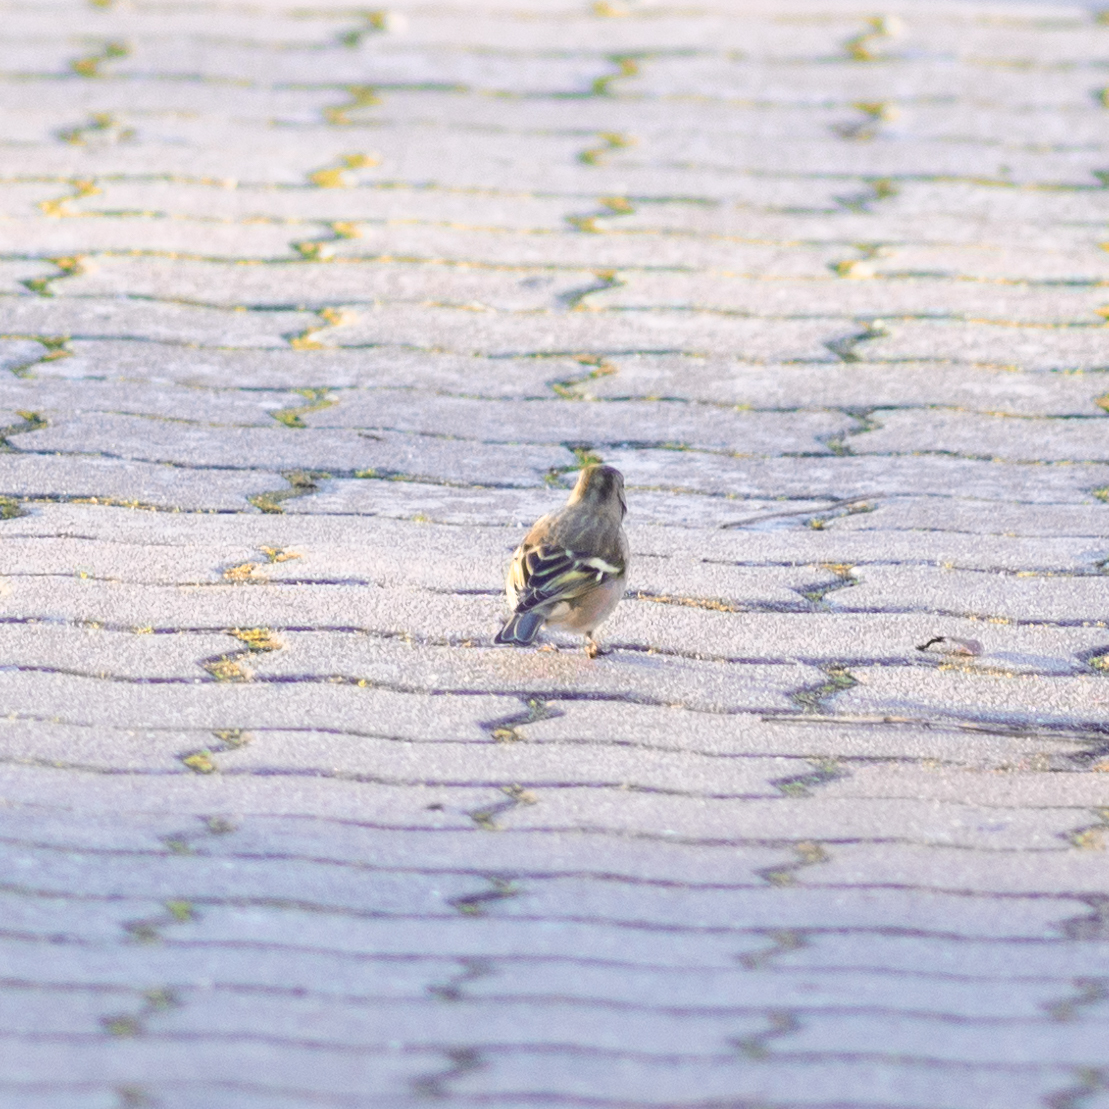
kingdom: Animalia
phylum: Chordata
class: Aves
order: Passeriformes
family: Fringillidae
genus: Fringilla
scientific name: Fringilla coelebs
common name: Common chaffinch
